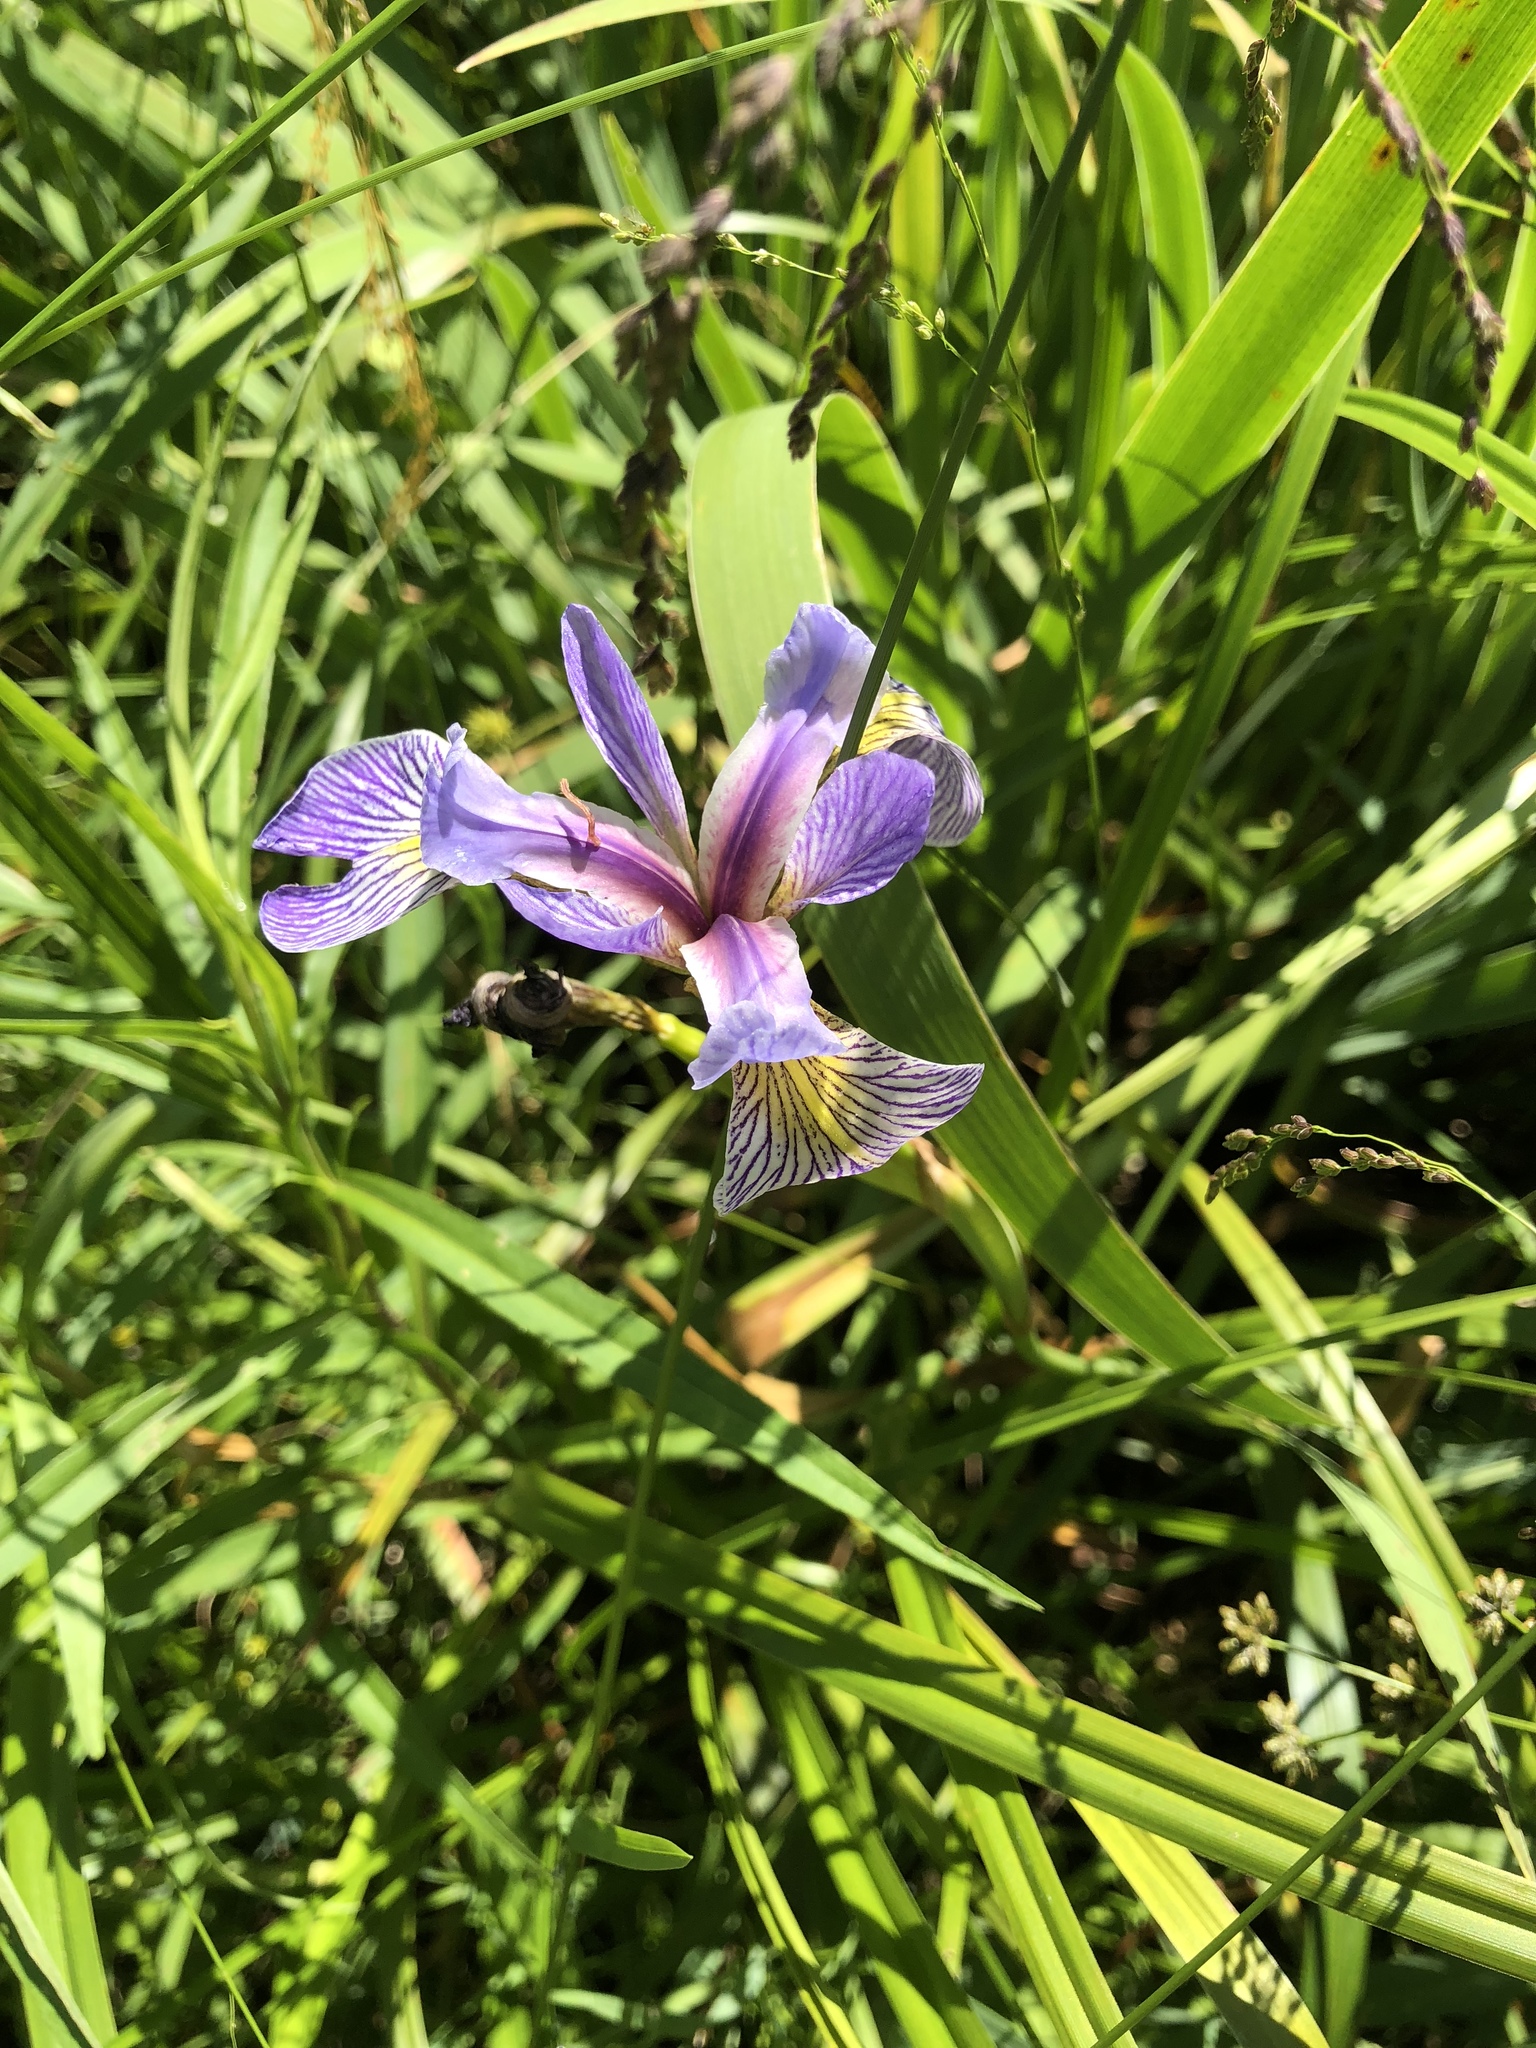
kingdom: Plantae
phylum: Tracheophyta
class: Liliopsida
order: Asparagales
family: Iridaceae
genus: Iris
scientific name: Iris versicolor
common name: Purple iris
